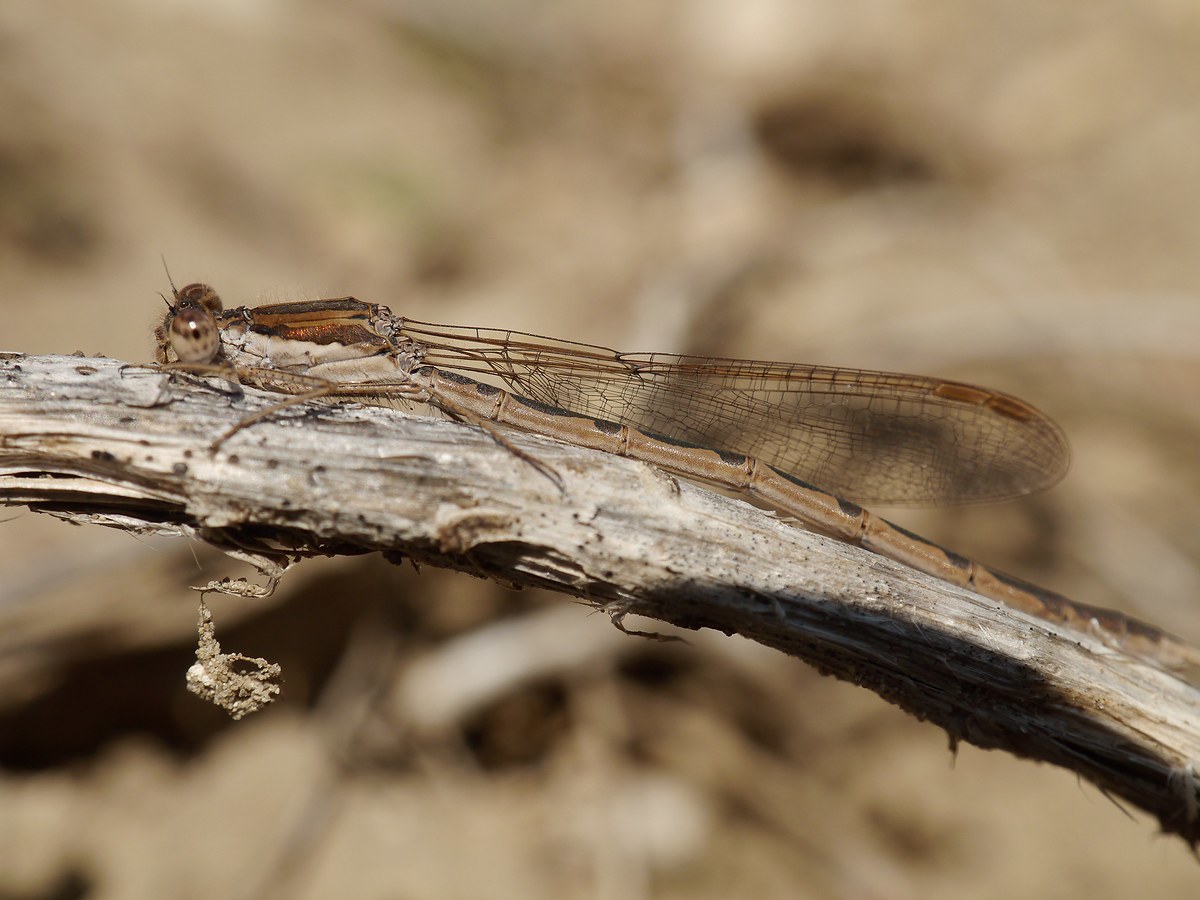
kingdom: Animalia
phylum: Arthropoda
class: Insecta
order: Odonata
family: Lestidae
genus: Sympecma
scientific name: Sympecma fusca
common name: Common winter damsel
